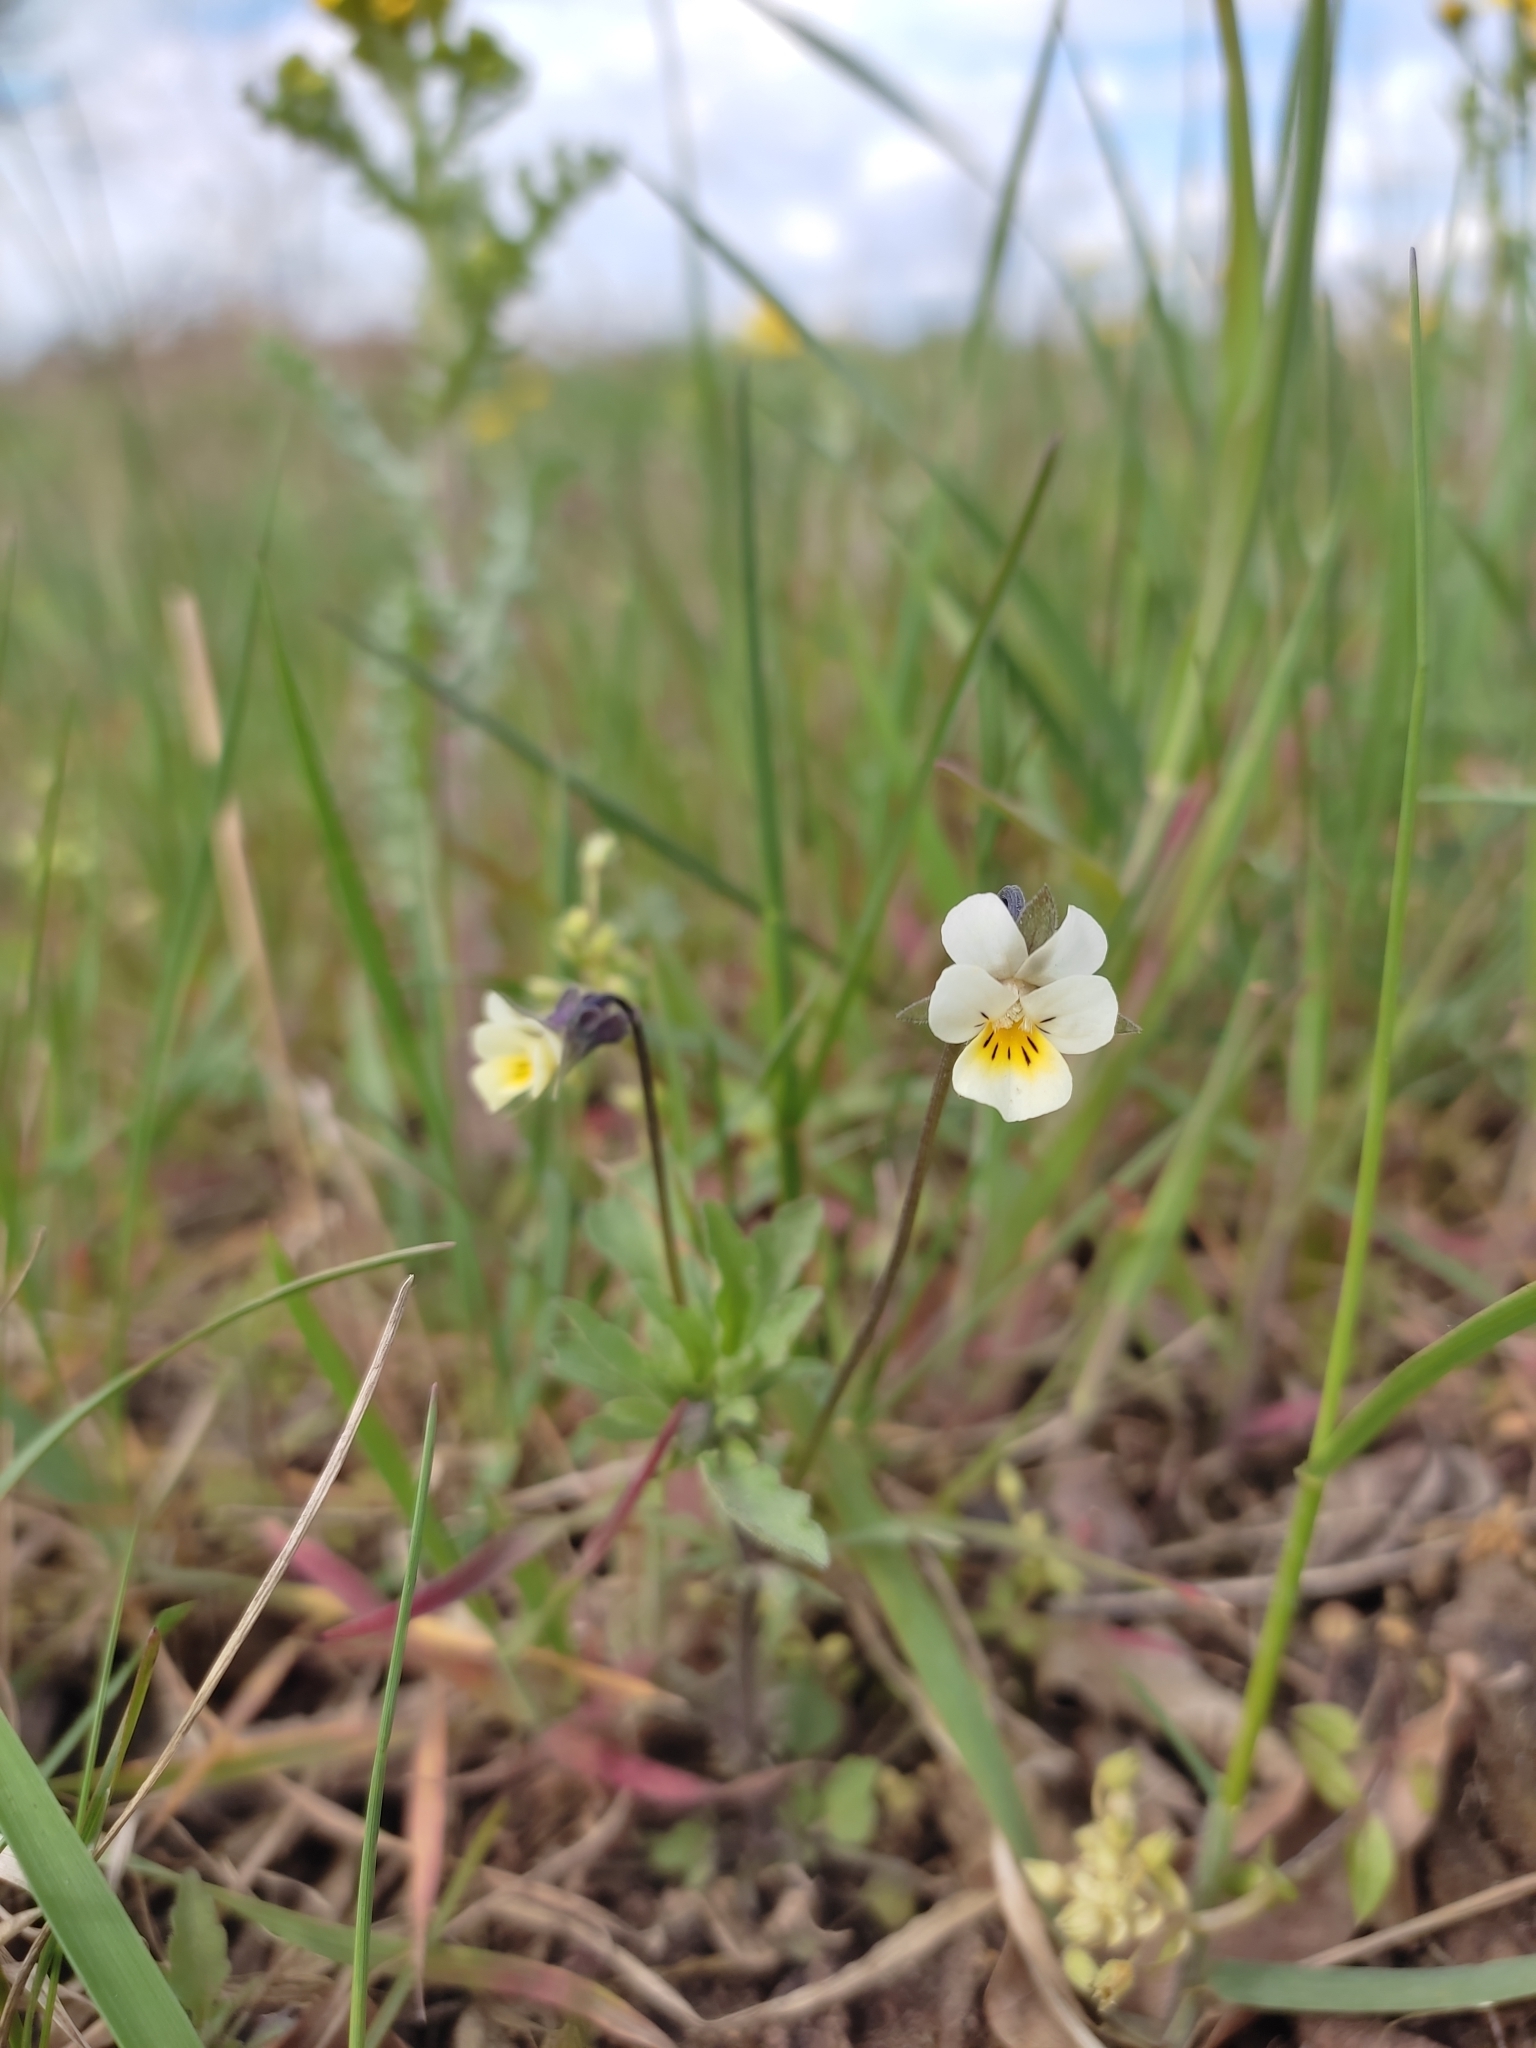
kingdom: Plantae
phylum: Tracheophyta
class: Magnoliopsida
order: Malpighiales
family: Violaceae
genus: Viola
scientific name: Viola arvensis
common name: Field pansy
